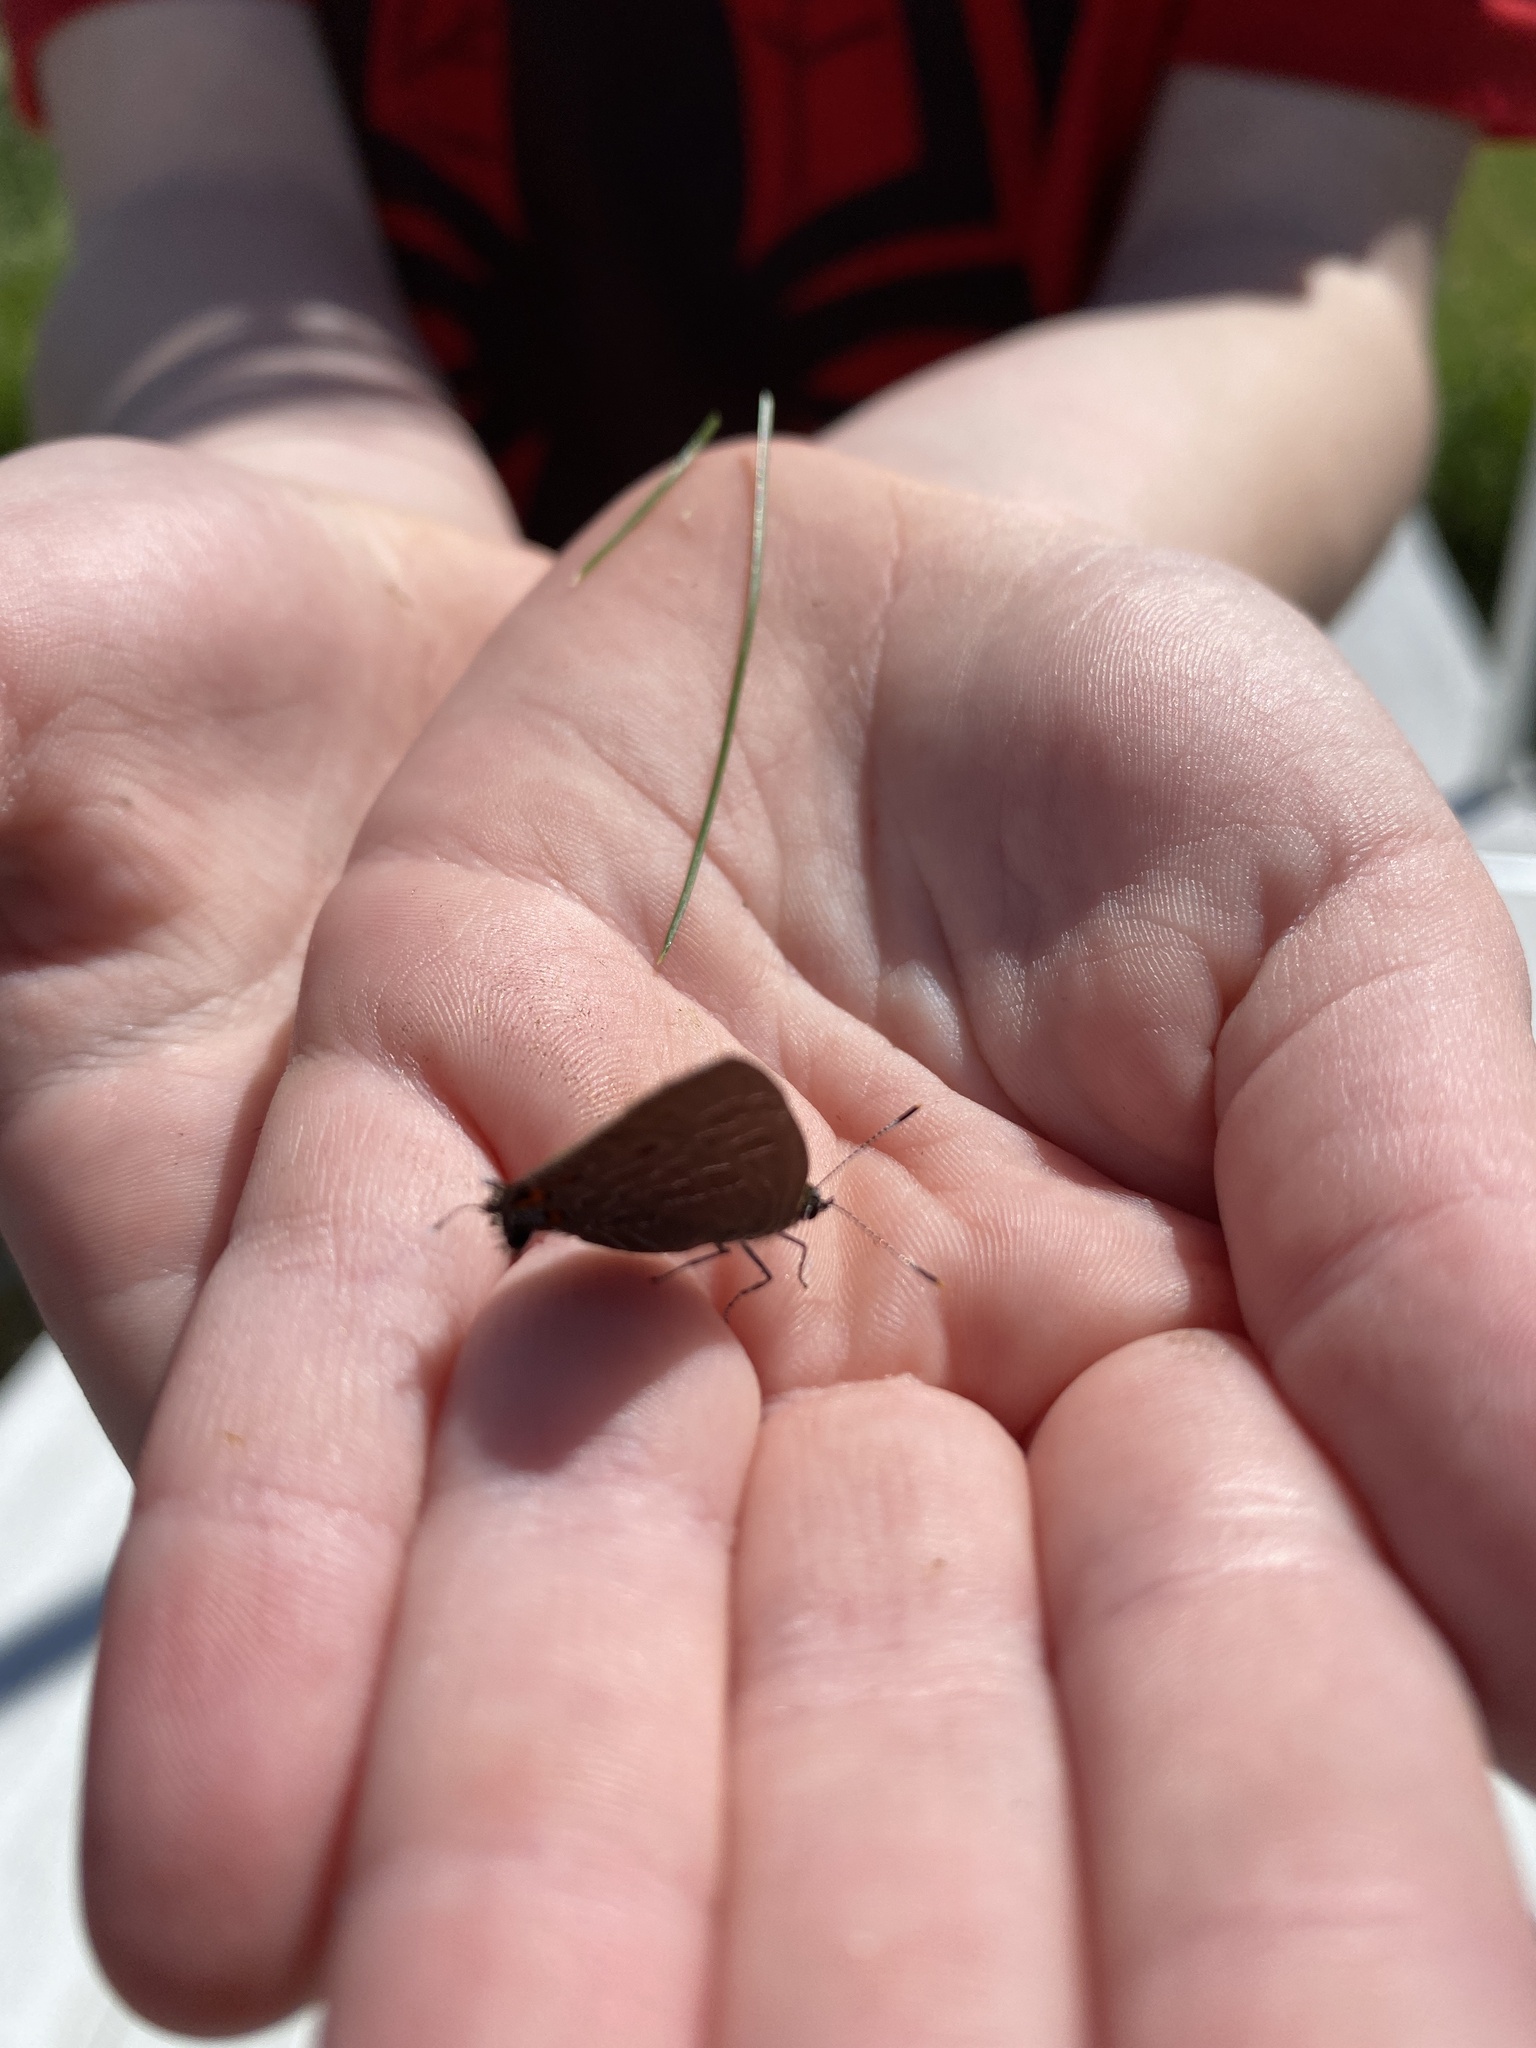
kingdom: Animalia
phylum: Arthropoda
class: Insecta
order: Lepidoptera
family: Lycaenidae
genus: Satyrium
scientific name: Satyrium liparops
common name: Striped hairstreak
